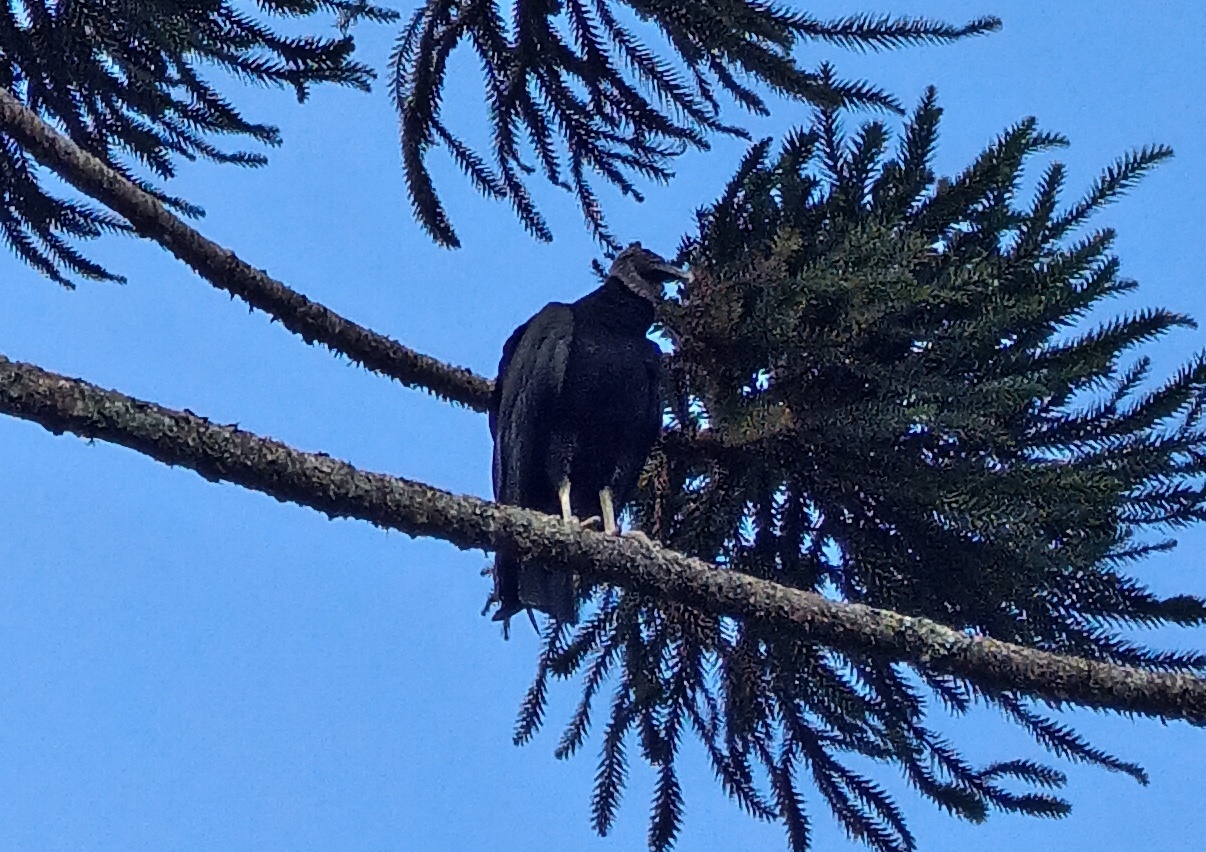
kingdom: Animalia
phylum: Chordata
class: Aves
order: Accipitriformes
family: Cathartidae
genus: Coragyps
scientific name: Coragyps atratus
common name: Black vulture
